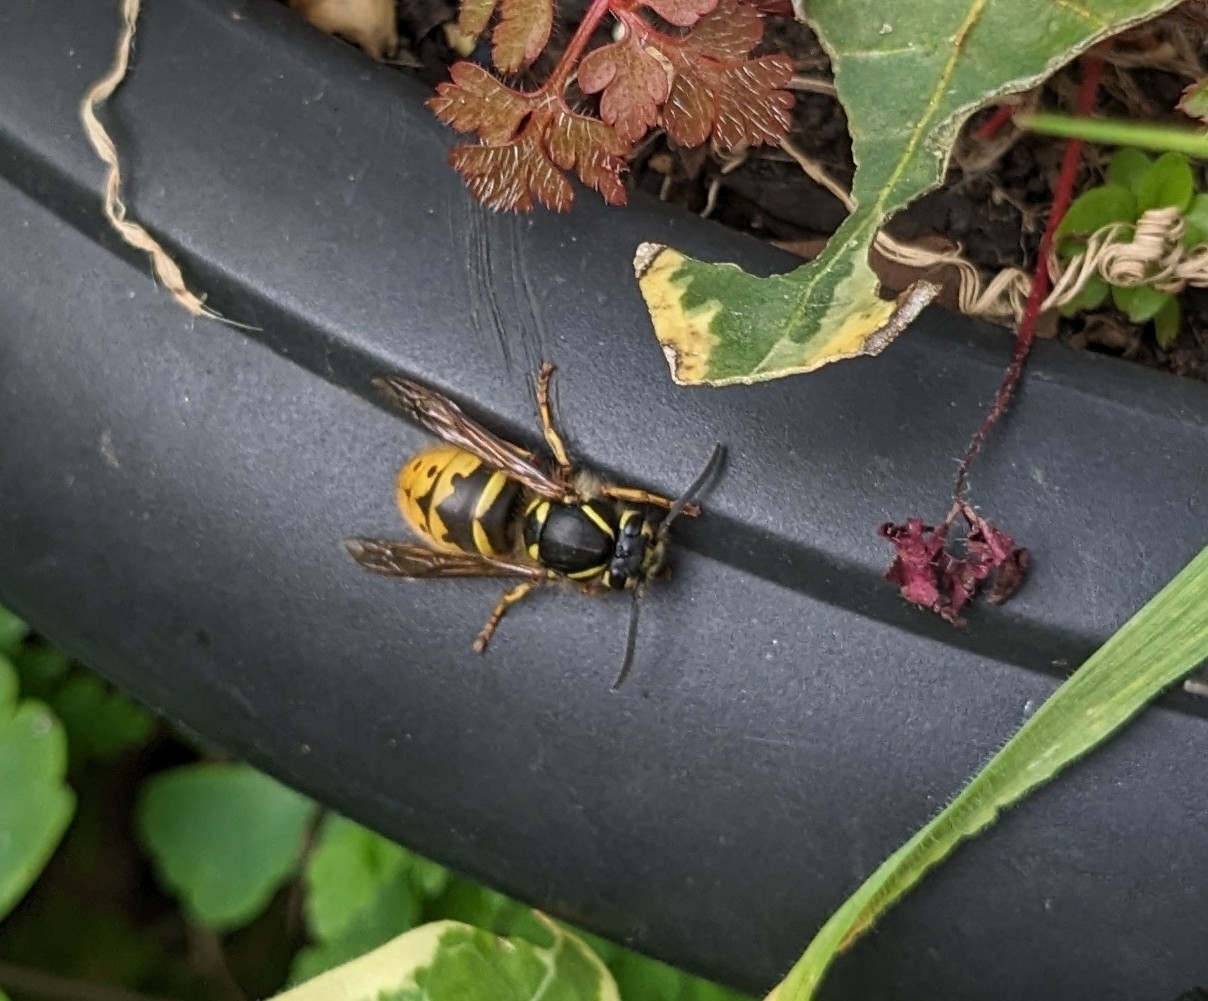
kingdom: Animalia
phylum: Arthropoda
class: Insecta
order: Hymenoptera
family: Vespidae
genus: Vespula
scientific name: Vespula vulgaris
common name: Common wasp
